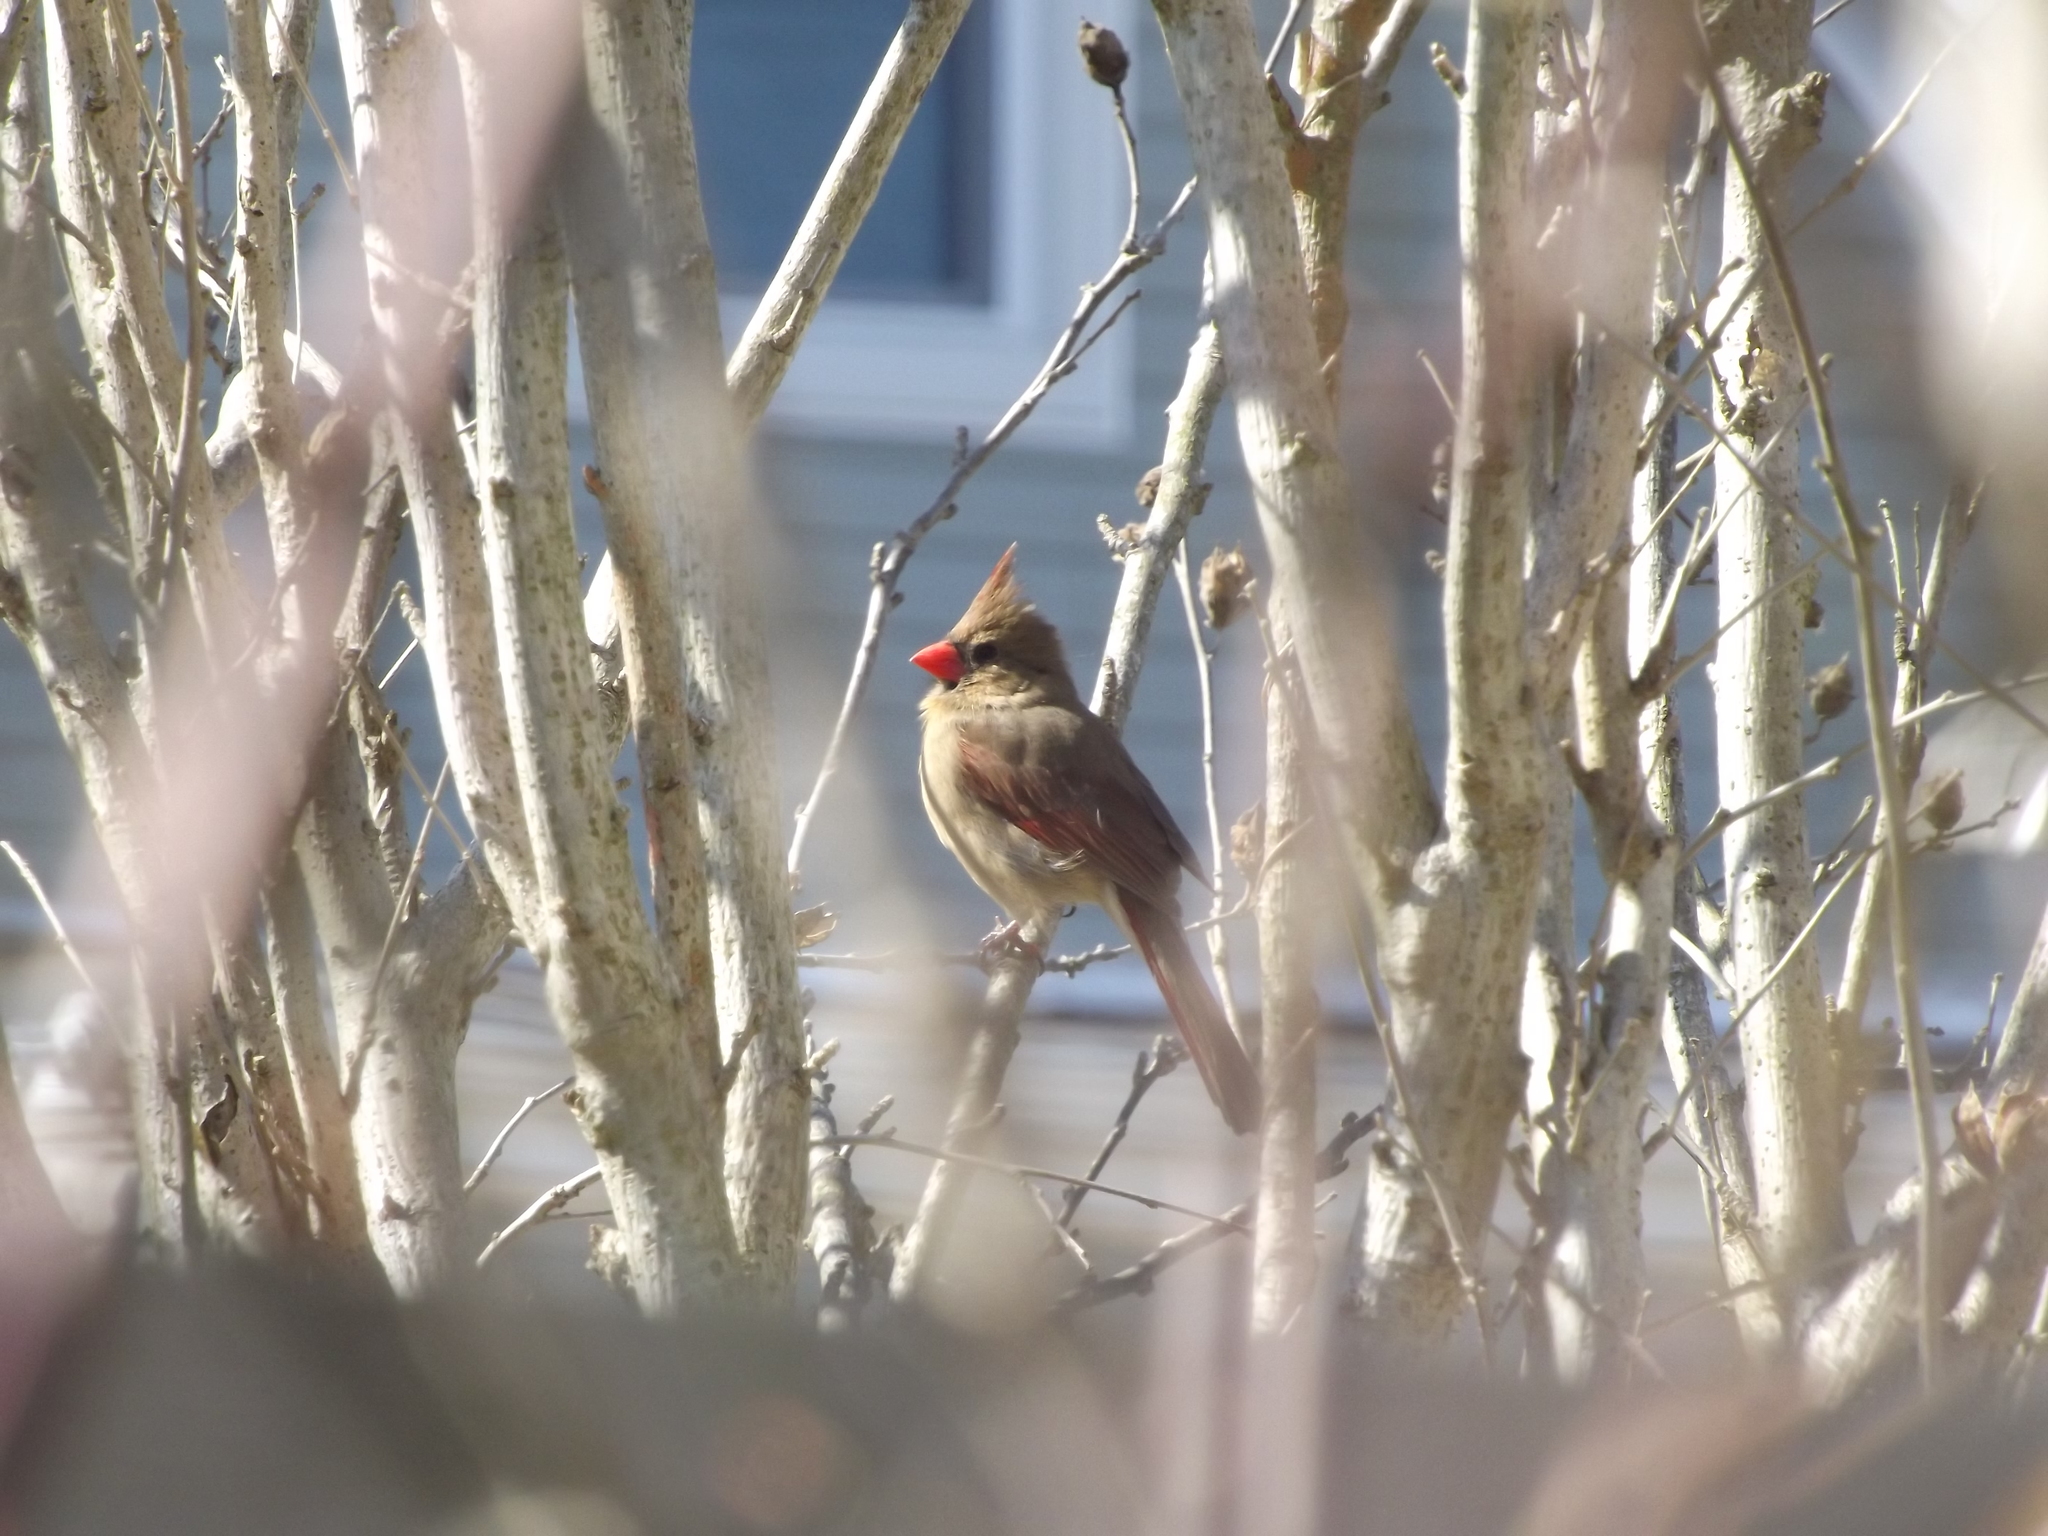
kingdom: Animalia
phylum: Chordata
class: Aves
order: Passeriformes
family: Cardinalidae
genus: Cardinalis
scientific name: Cardinalis cardinalis
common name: Northern cardinal
